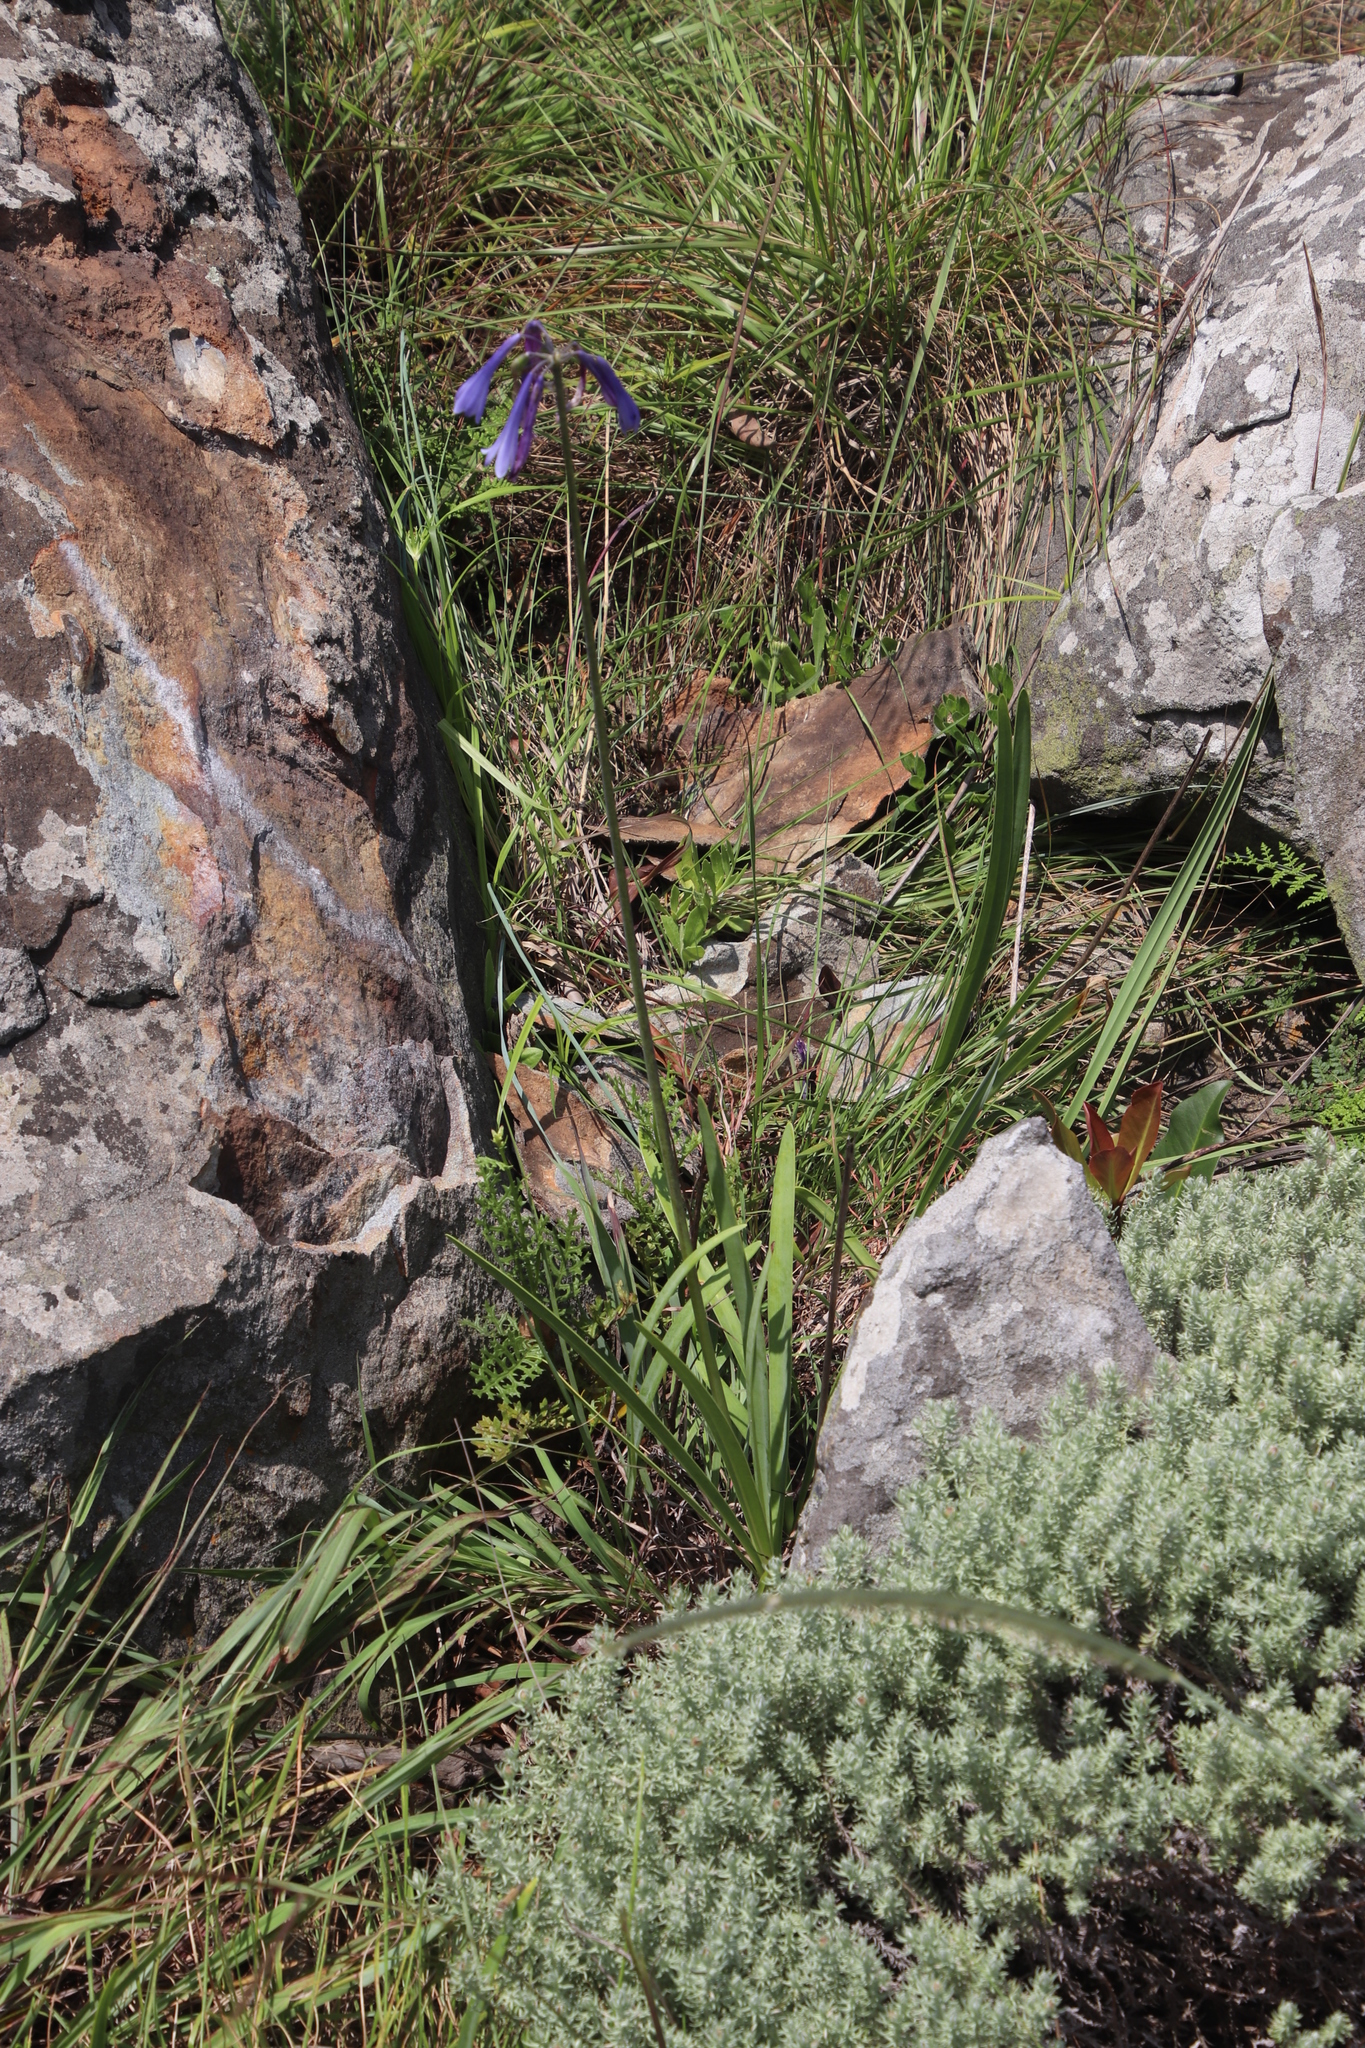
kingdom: Plantae
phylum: Tracheophyta
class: Liliopsida
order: Asparagales
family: Amaryllidaceae
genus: Agapanthus
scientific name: Agapanthus inapertus
